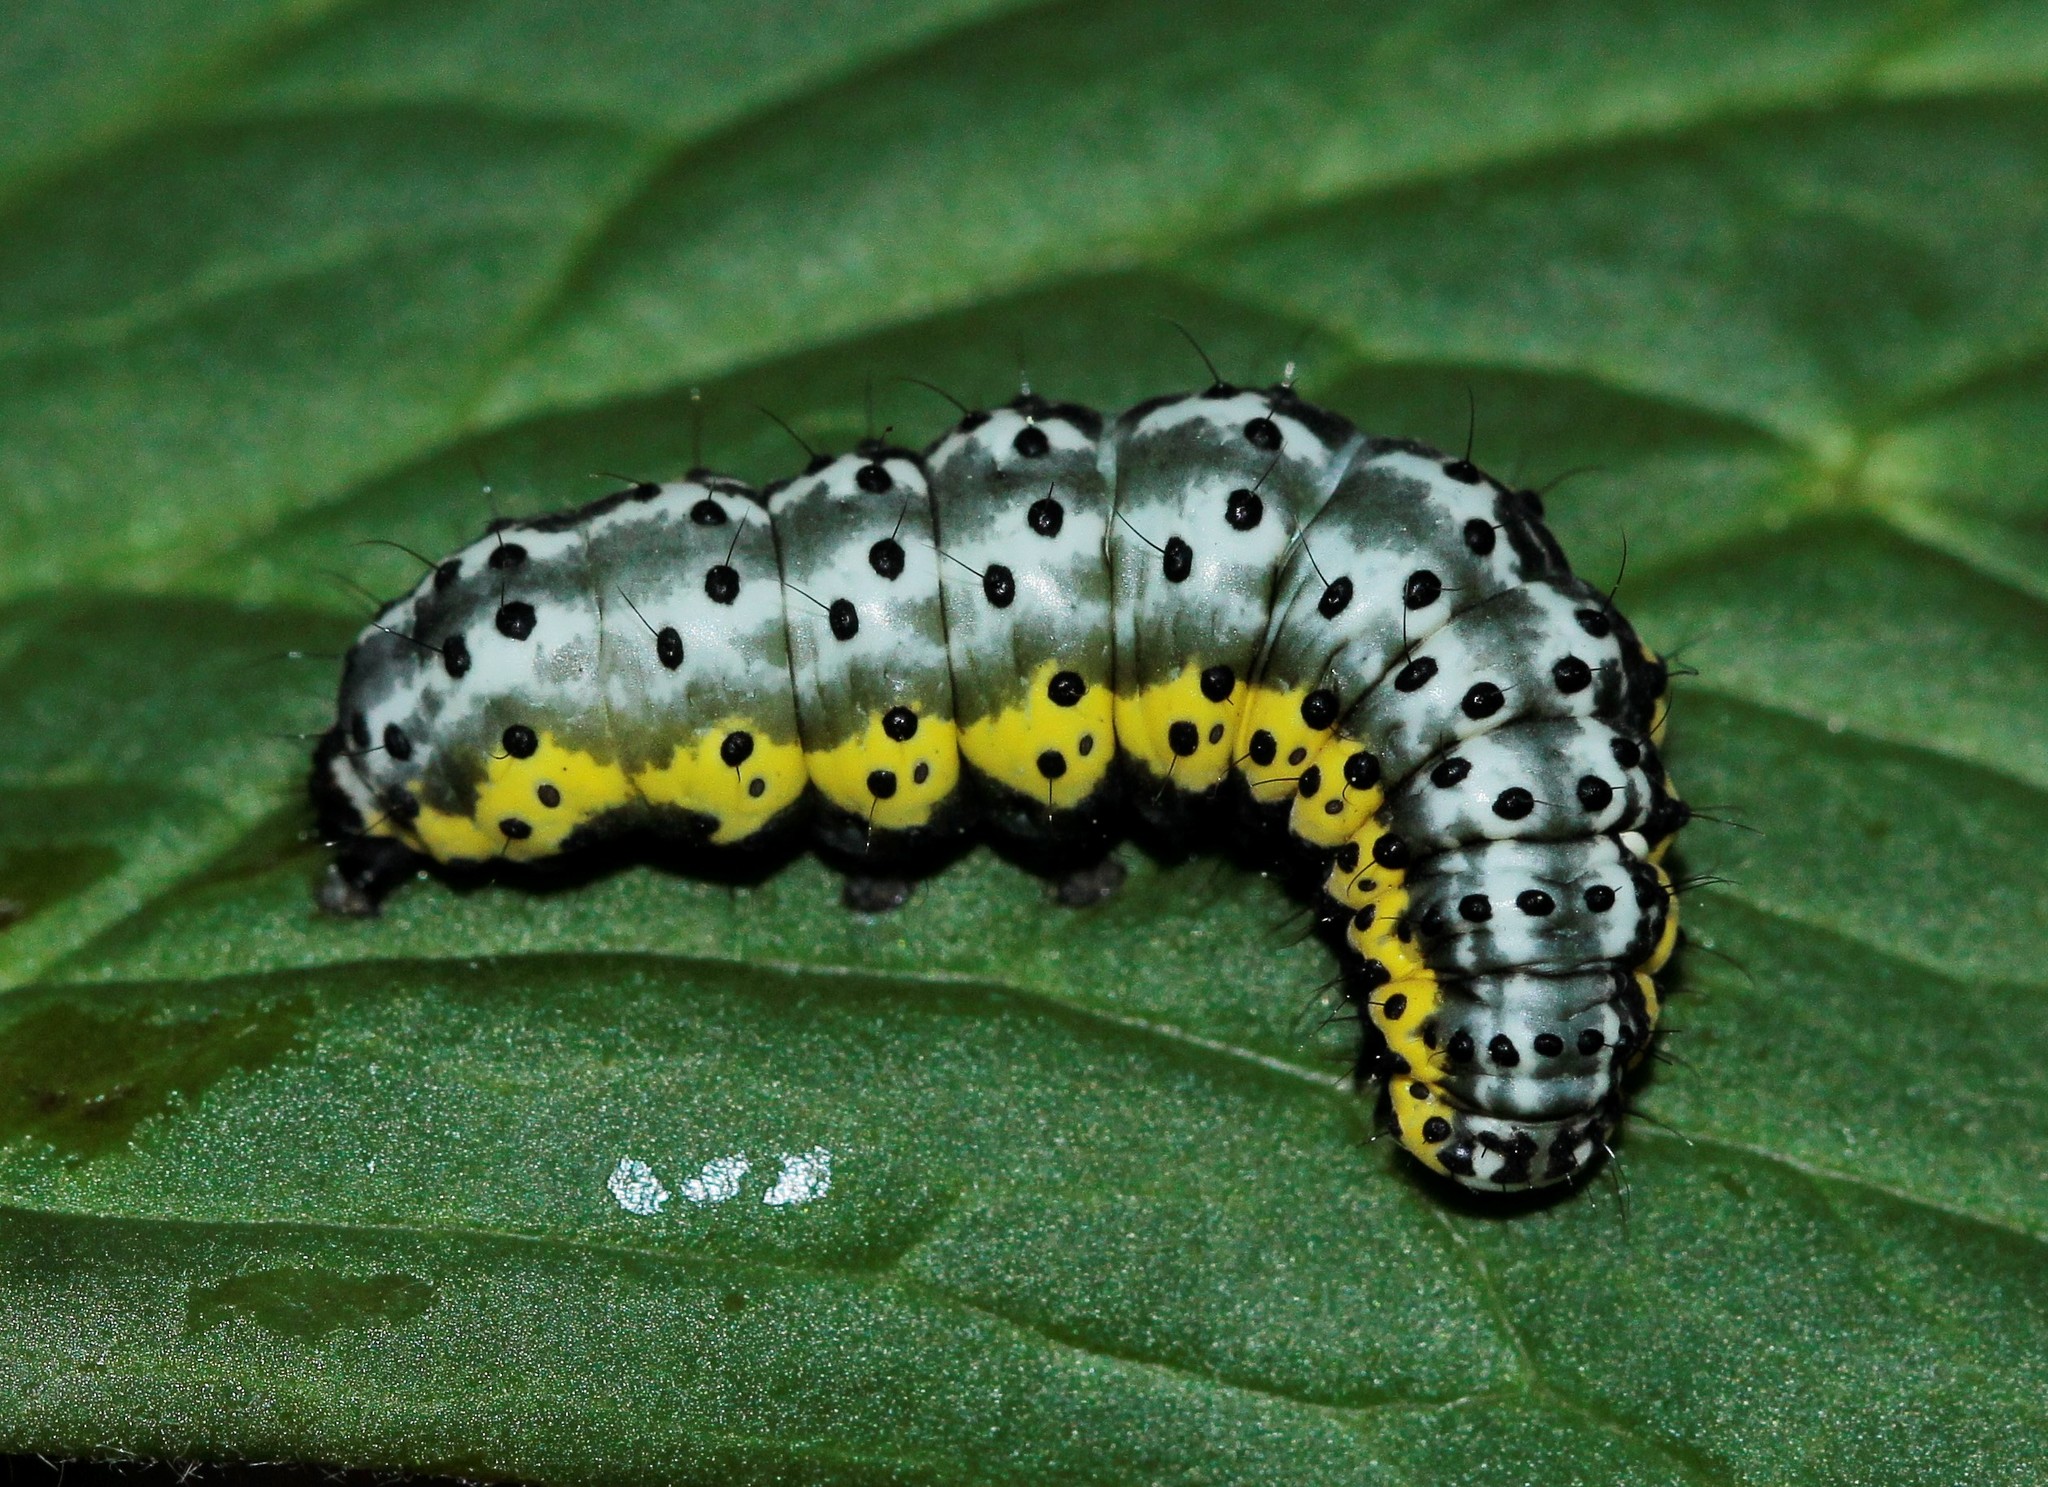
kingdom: Animalia
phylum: Arthropoda
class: Insecta
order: Lepidoptera
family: Noctuidae
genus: Euchalcia
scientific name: Euchalcia variabilis
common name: Purple-shaded gem
